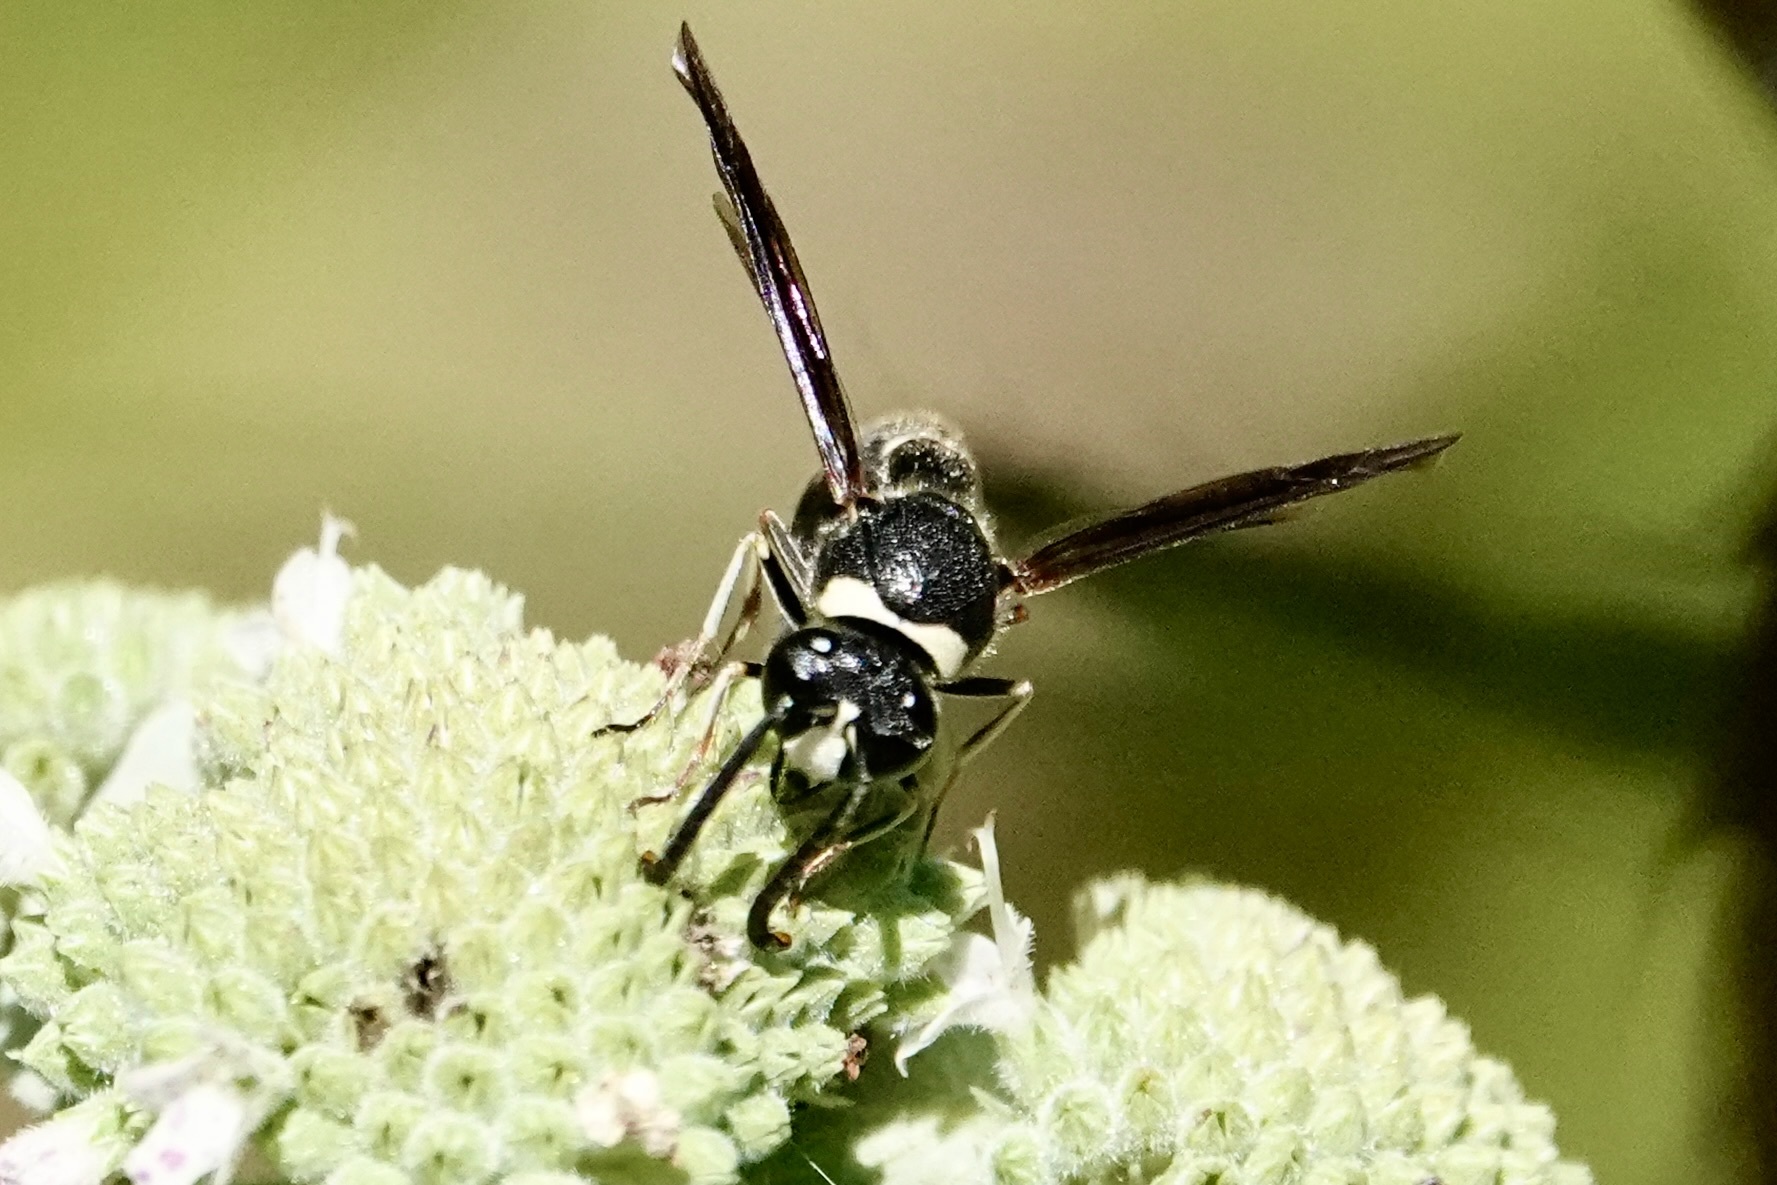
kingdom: Animalia
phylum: Arthropoda
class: Insecta
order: Hymenoptera
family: Vespidae
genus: Eumenes
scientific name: Eumenes fraternus
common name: Fraternal potter wasp
